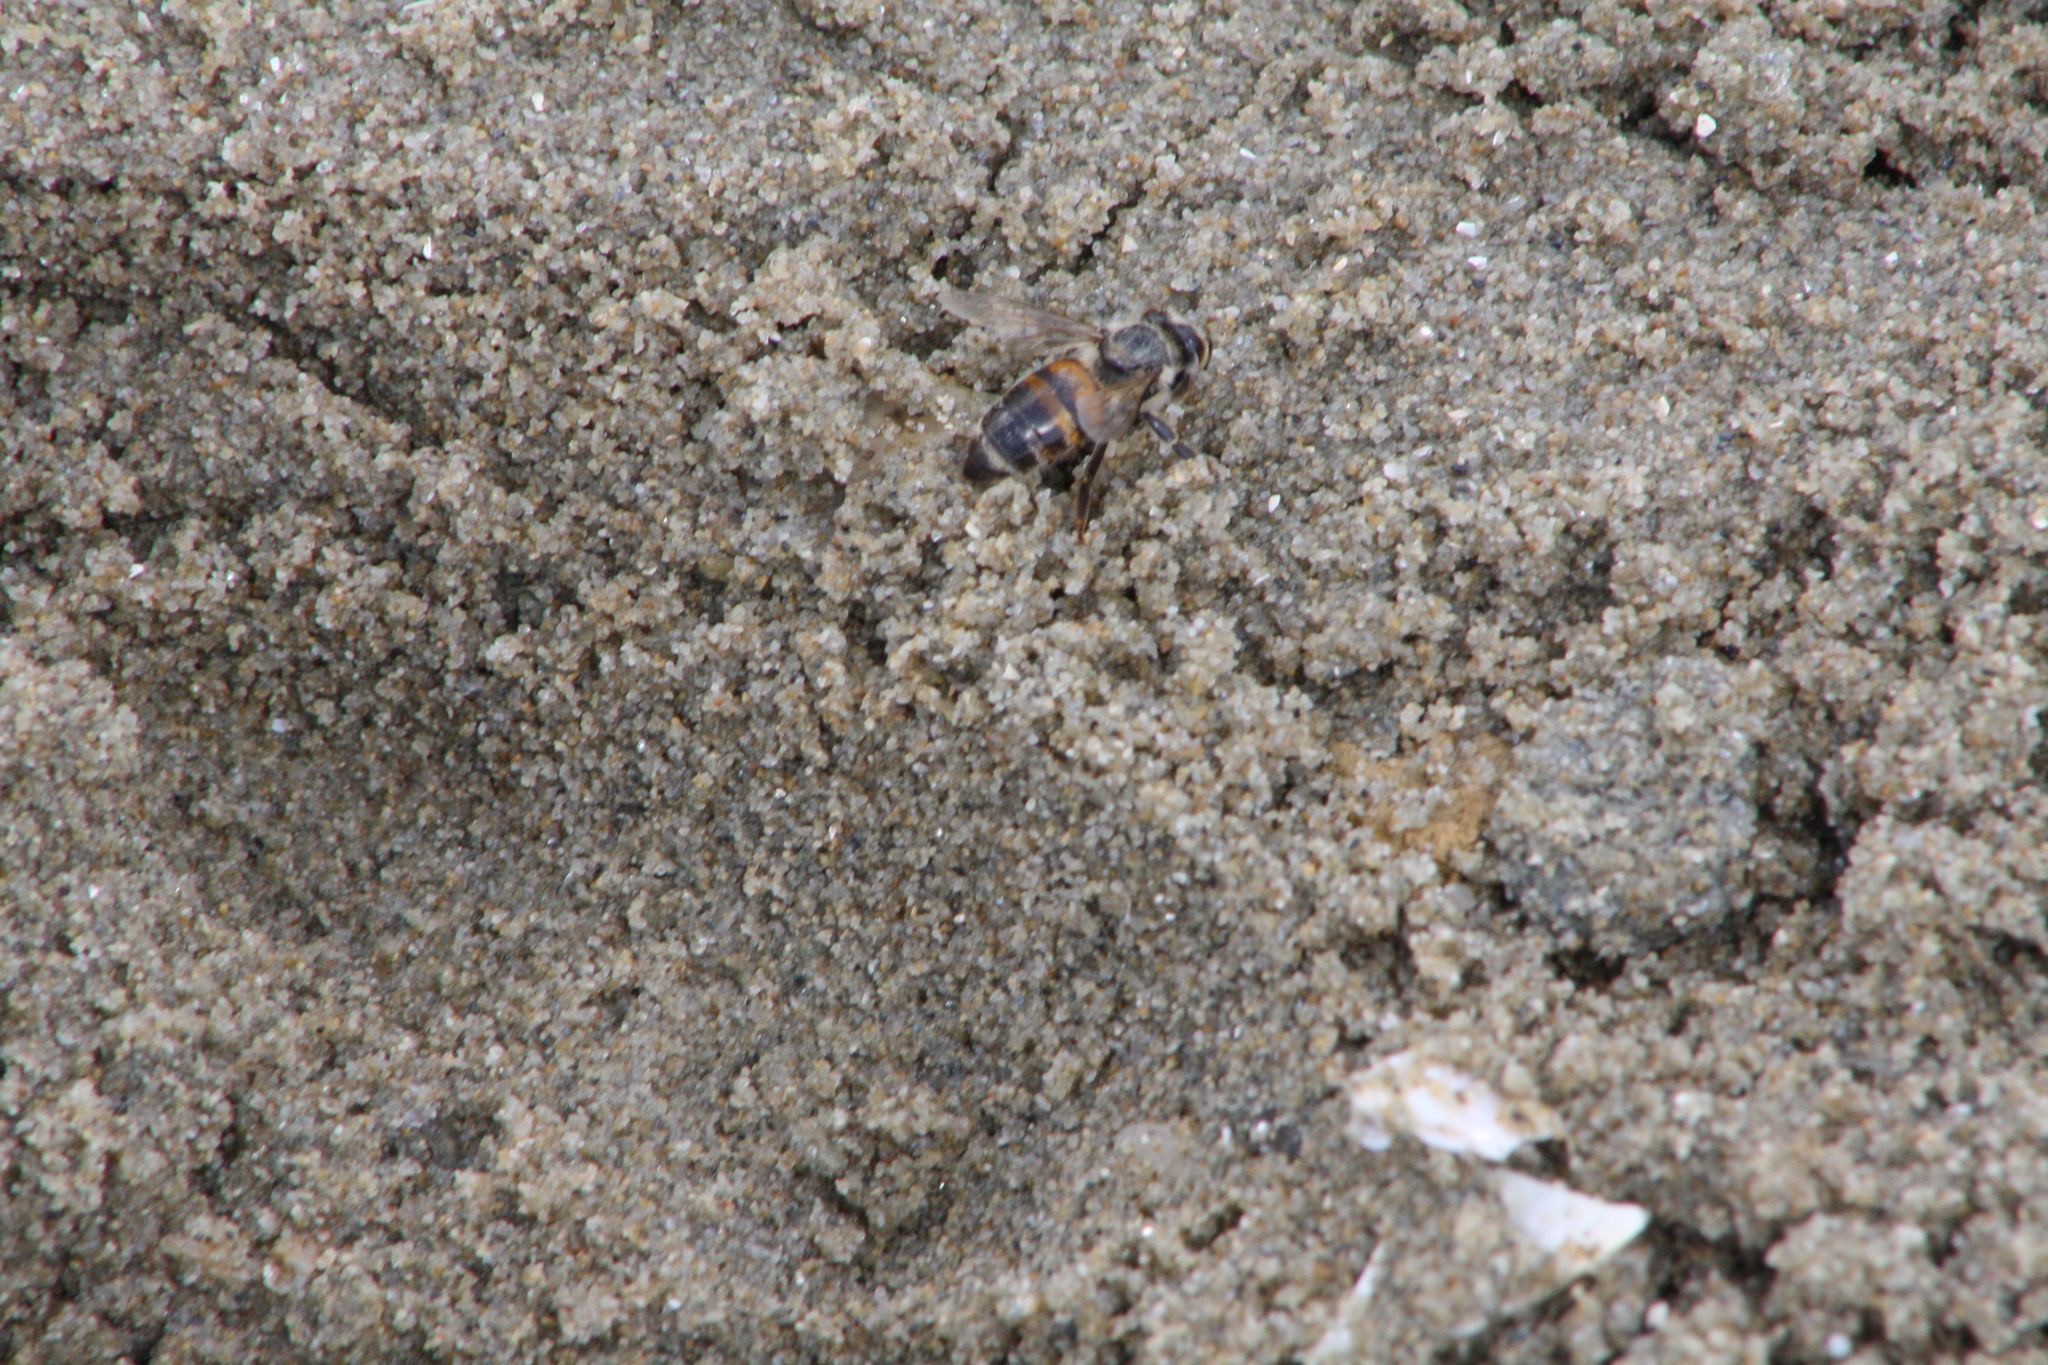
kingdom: Animalia
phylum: Arthropoda
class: Insecta
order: Hymenoptera
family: Apidae
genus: Apis
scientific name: Apis mellifera
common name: Honey bee
